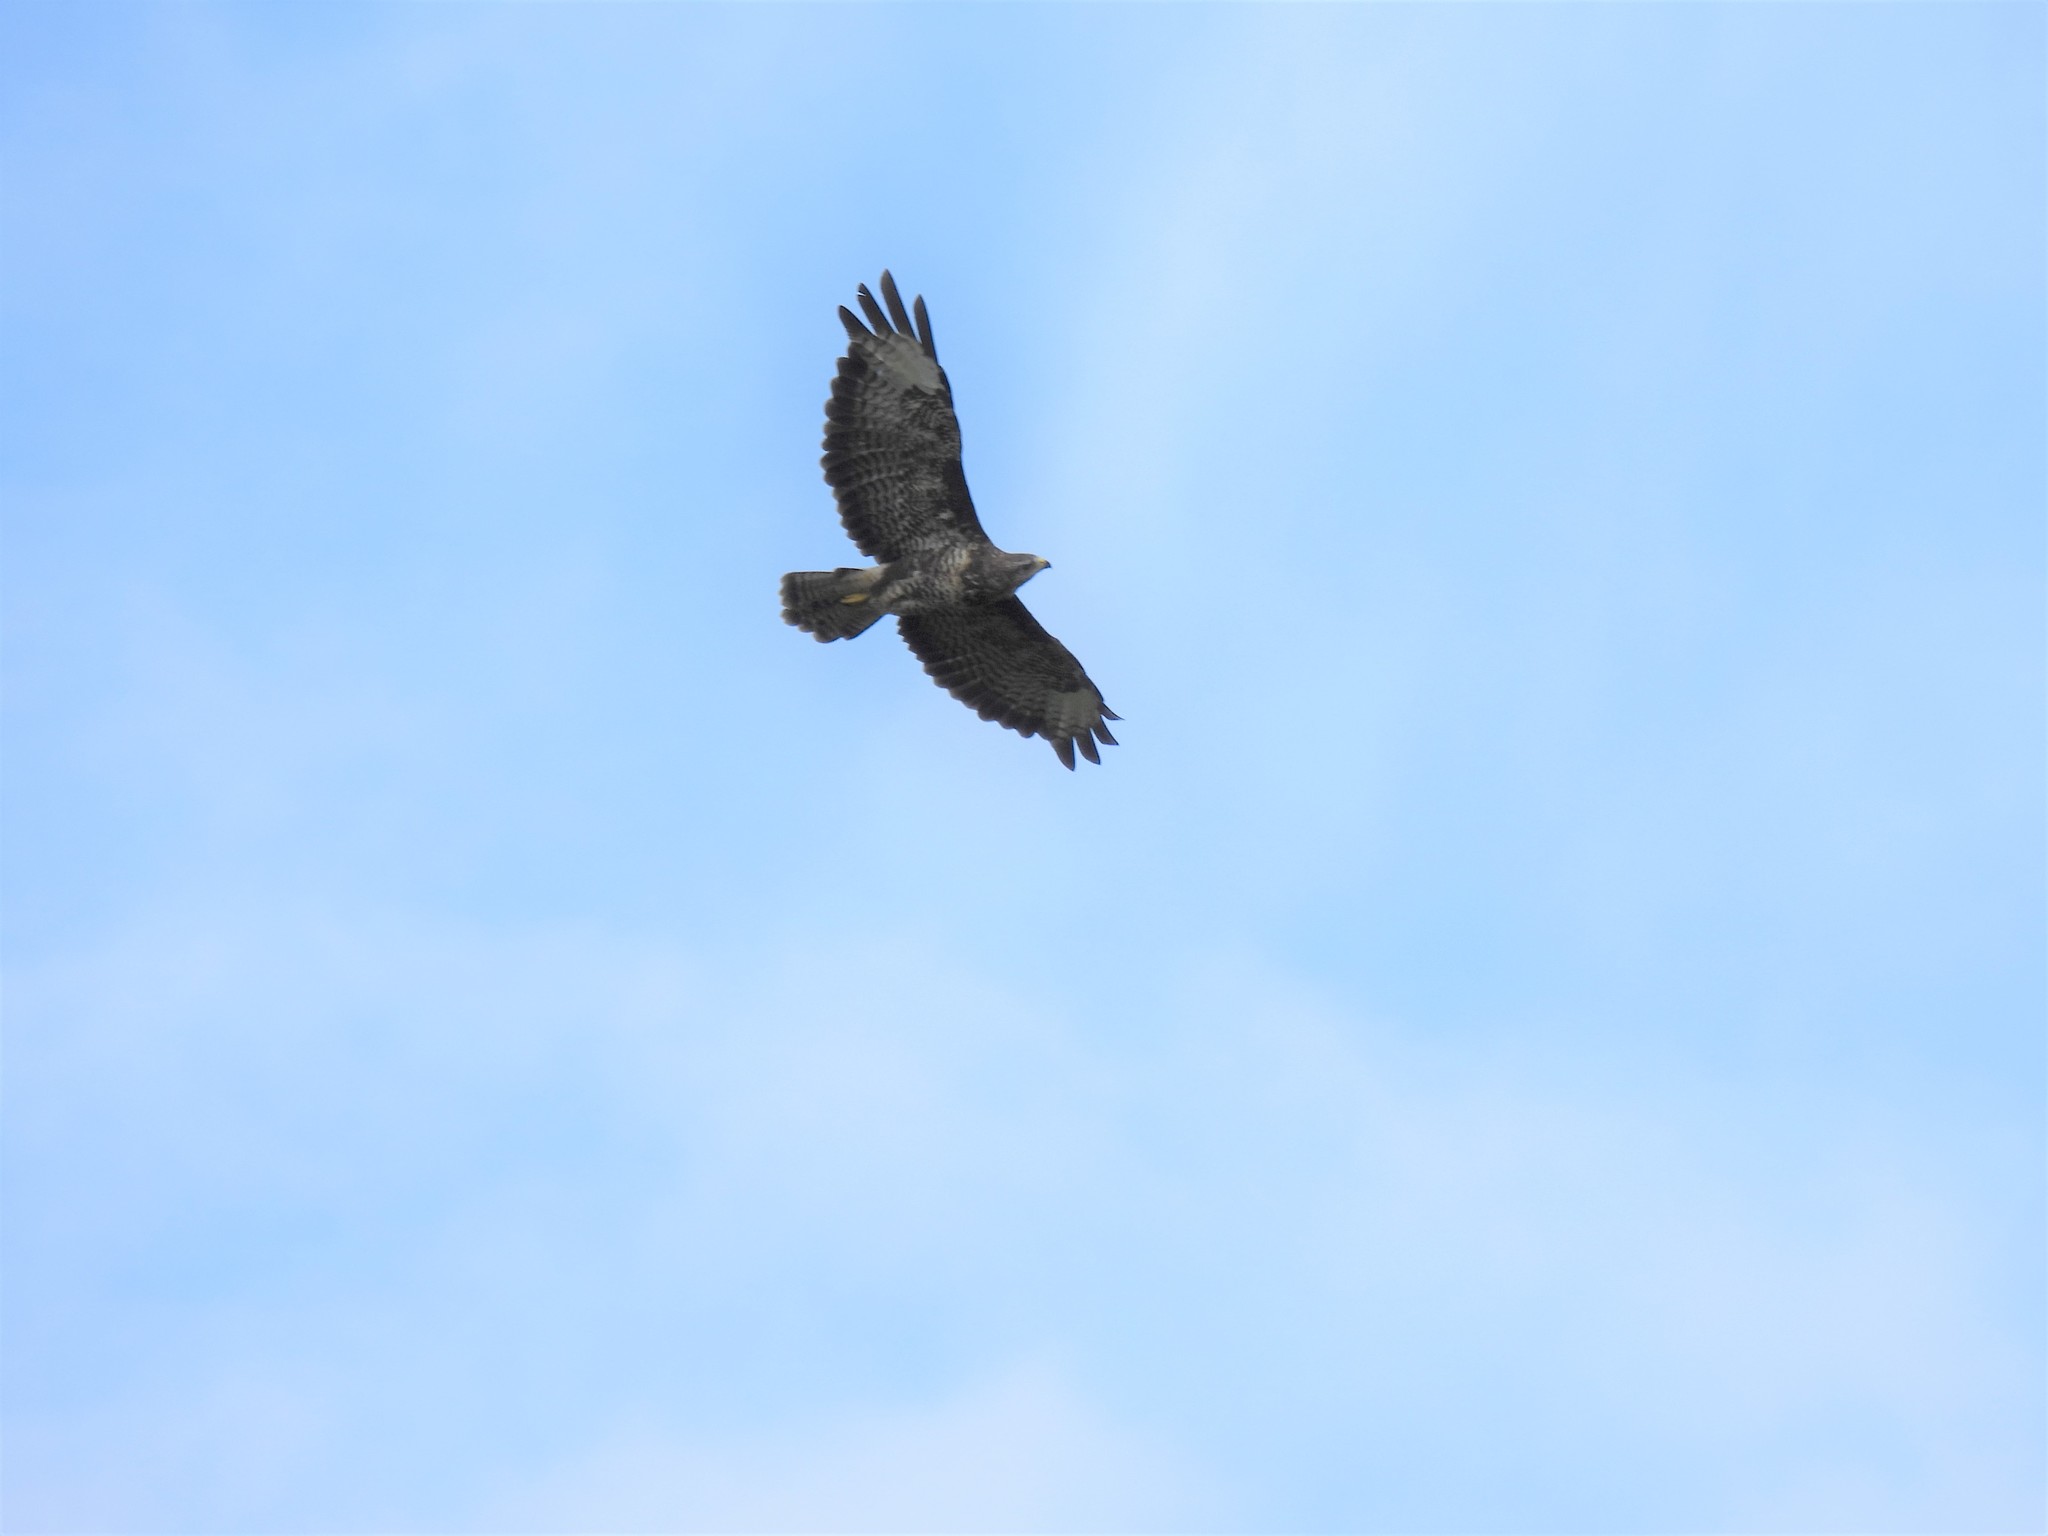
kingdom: Animalia
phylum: Chordata
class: Aves
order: Accipitriformes
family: Accipitridae
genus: Buteo
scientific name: Buteo buteo
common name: Common buzzard
